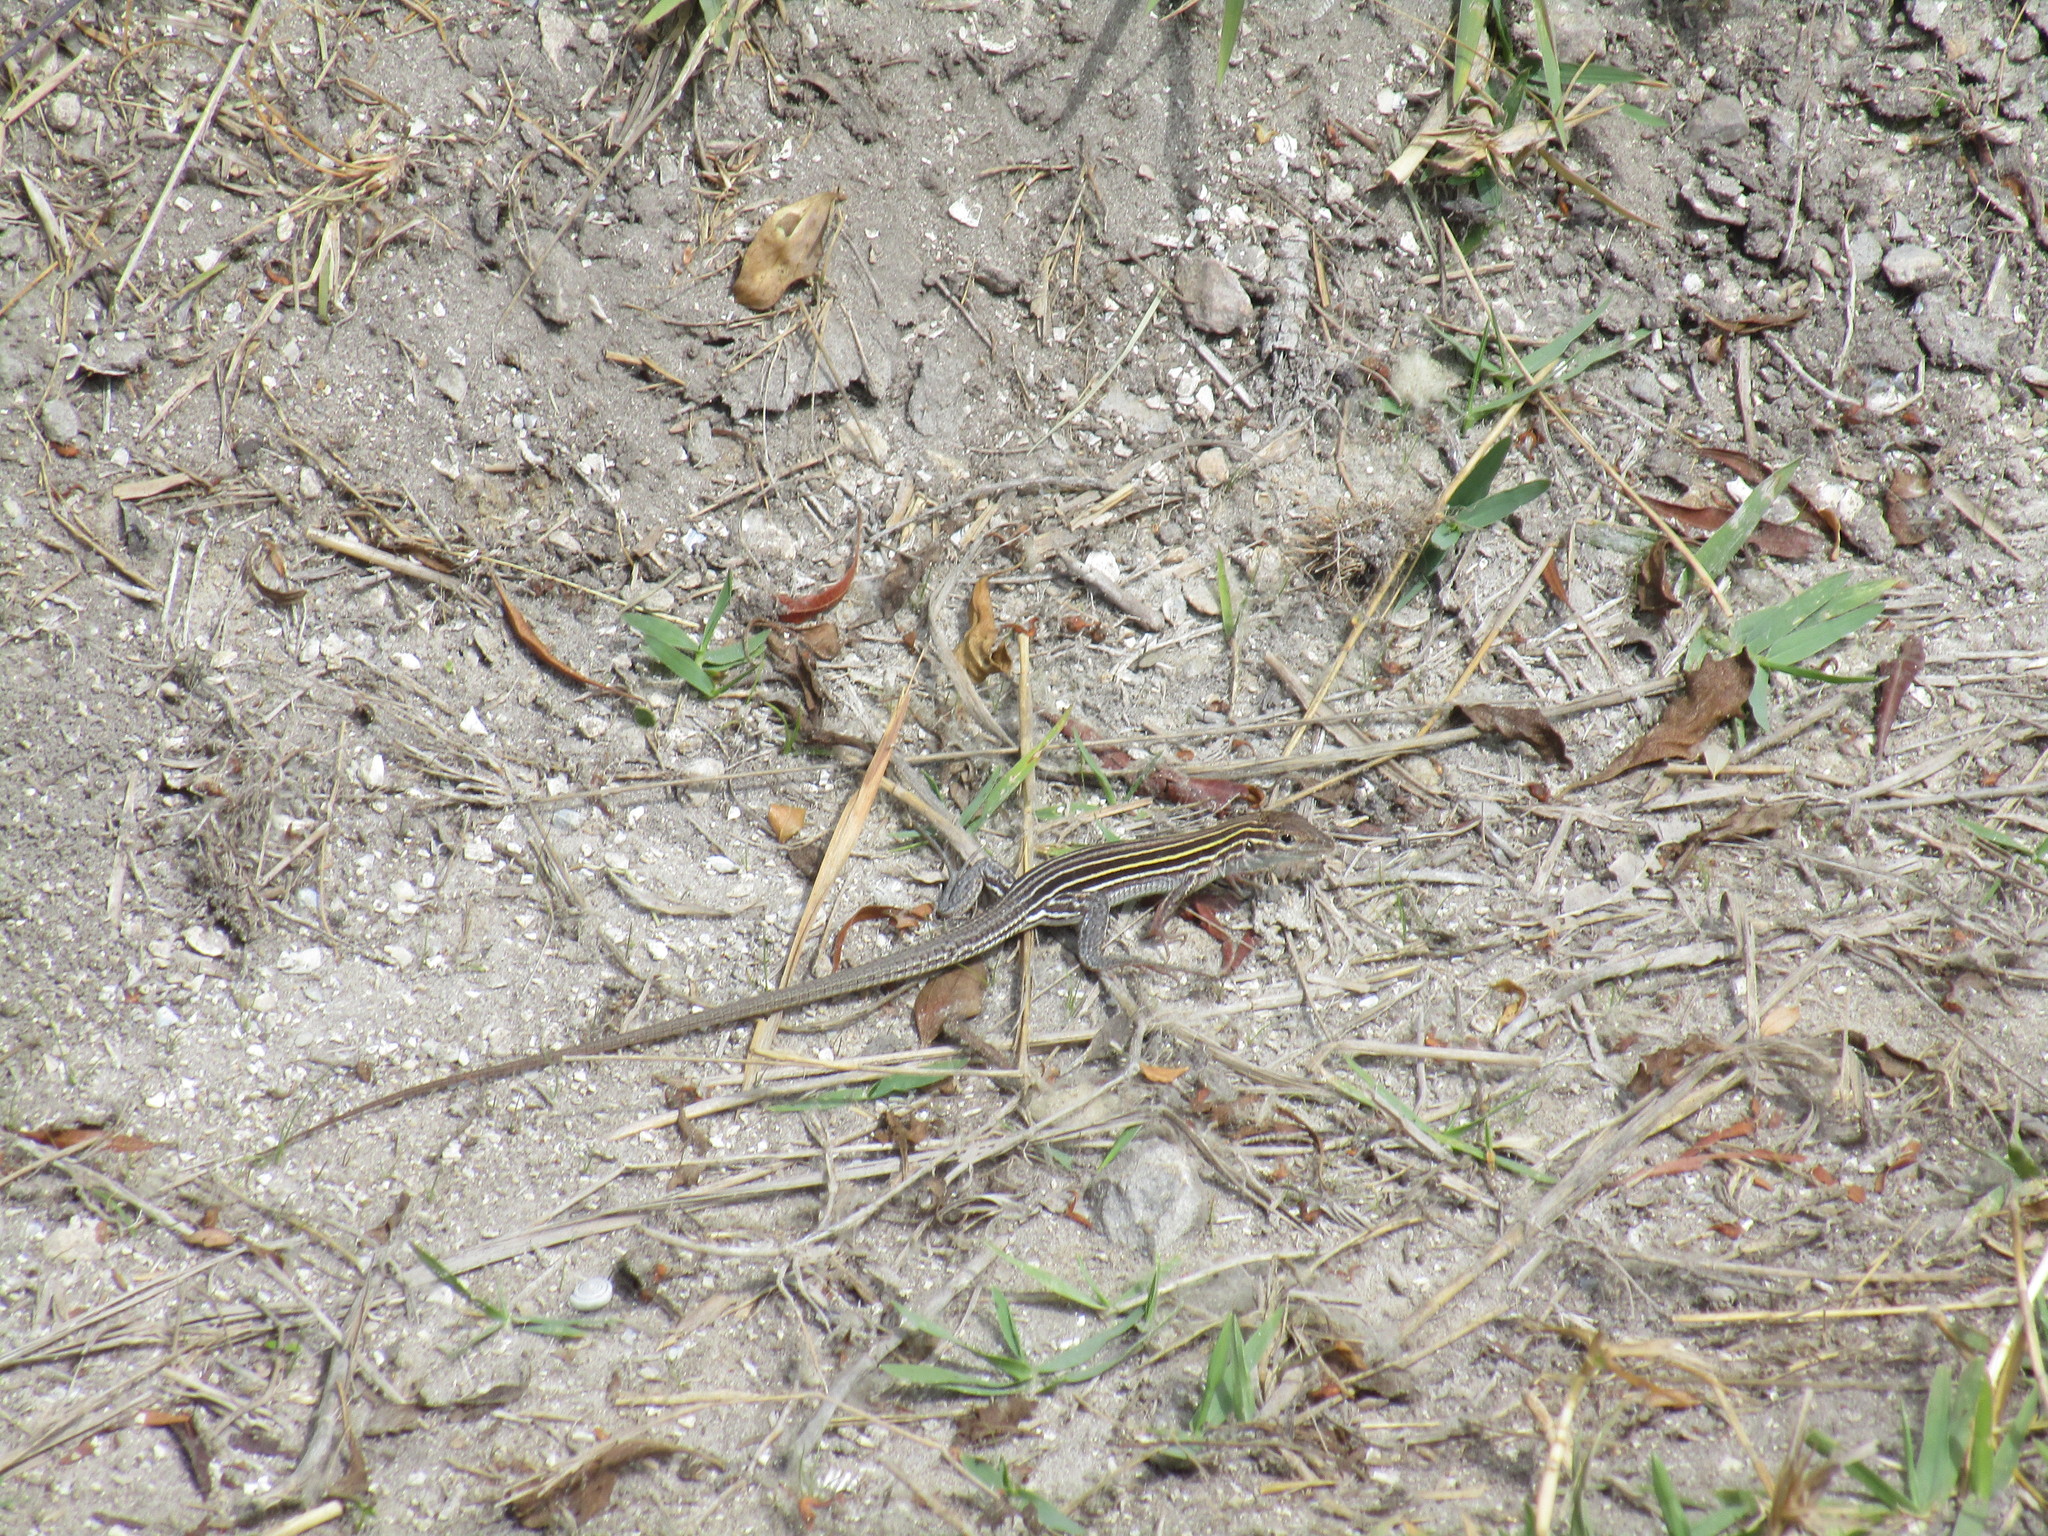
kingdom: Animalia
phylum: Chordata
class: Squamata
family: Teiidae
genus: Aspidoscelis
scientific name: Aspidoscelis sexlineatus
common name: Six-lined racerunner
